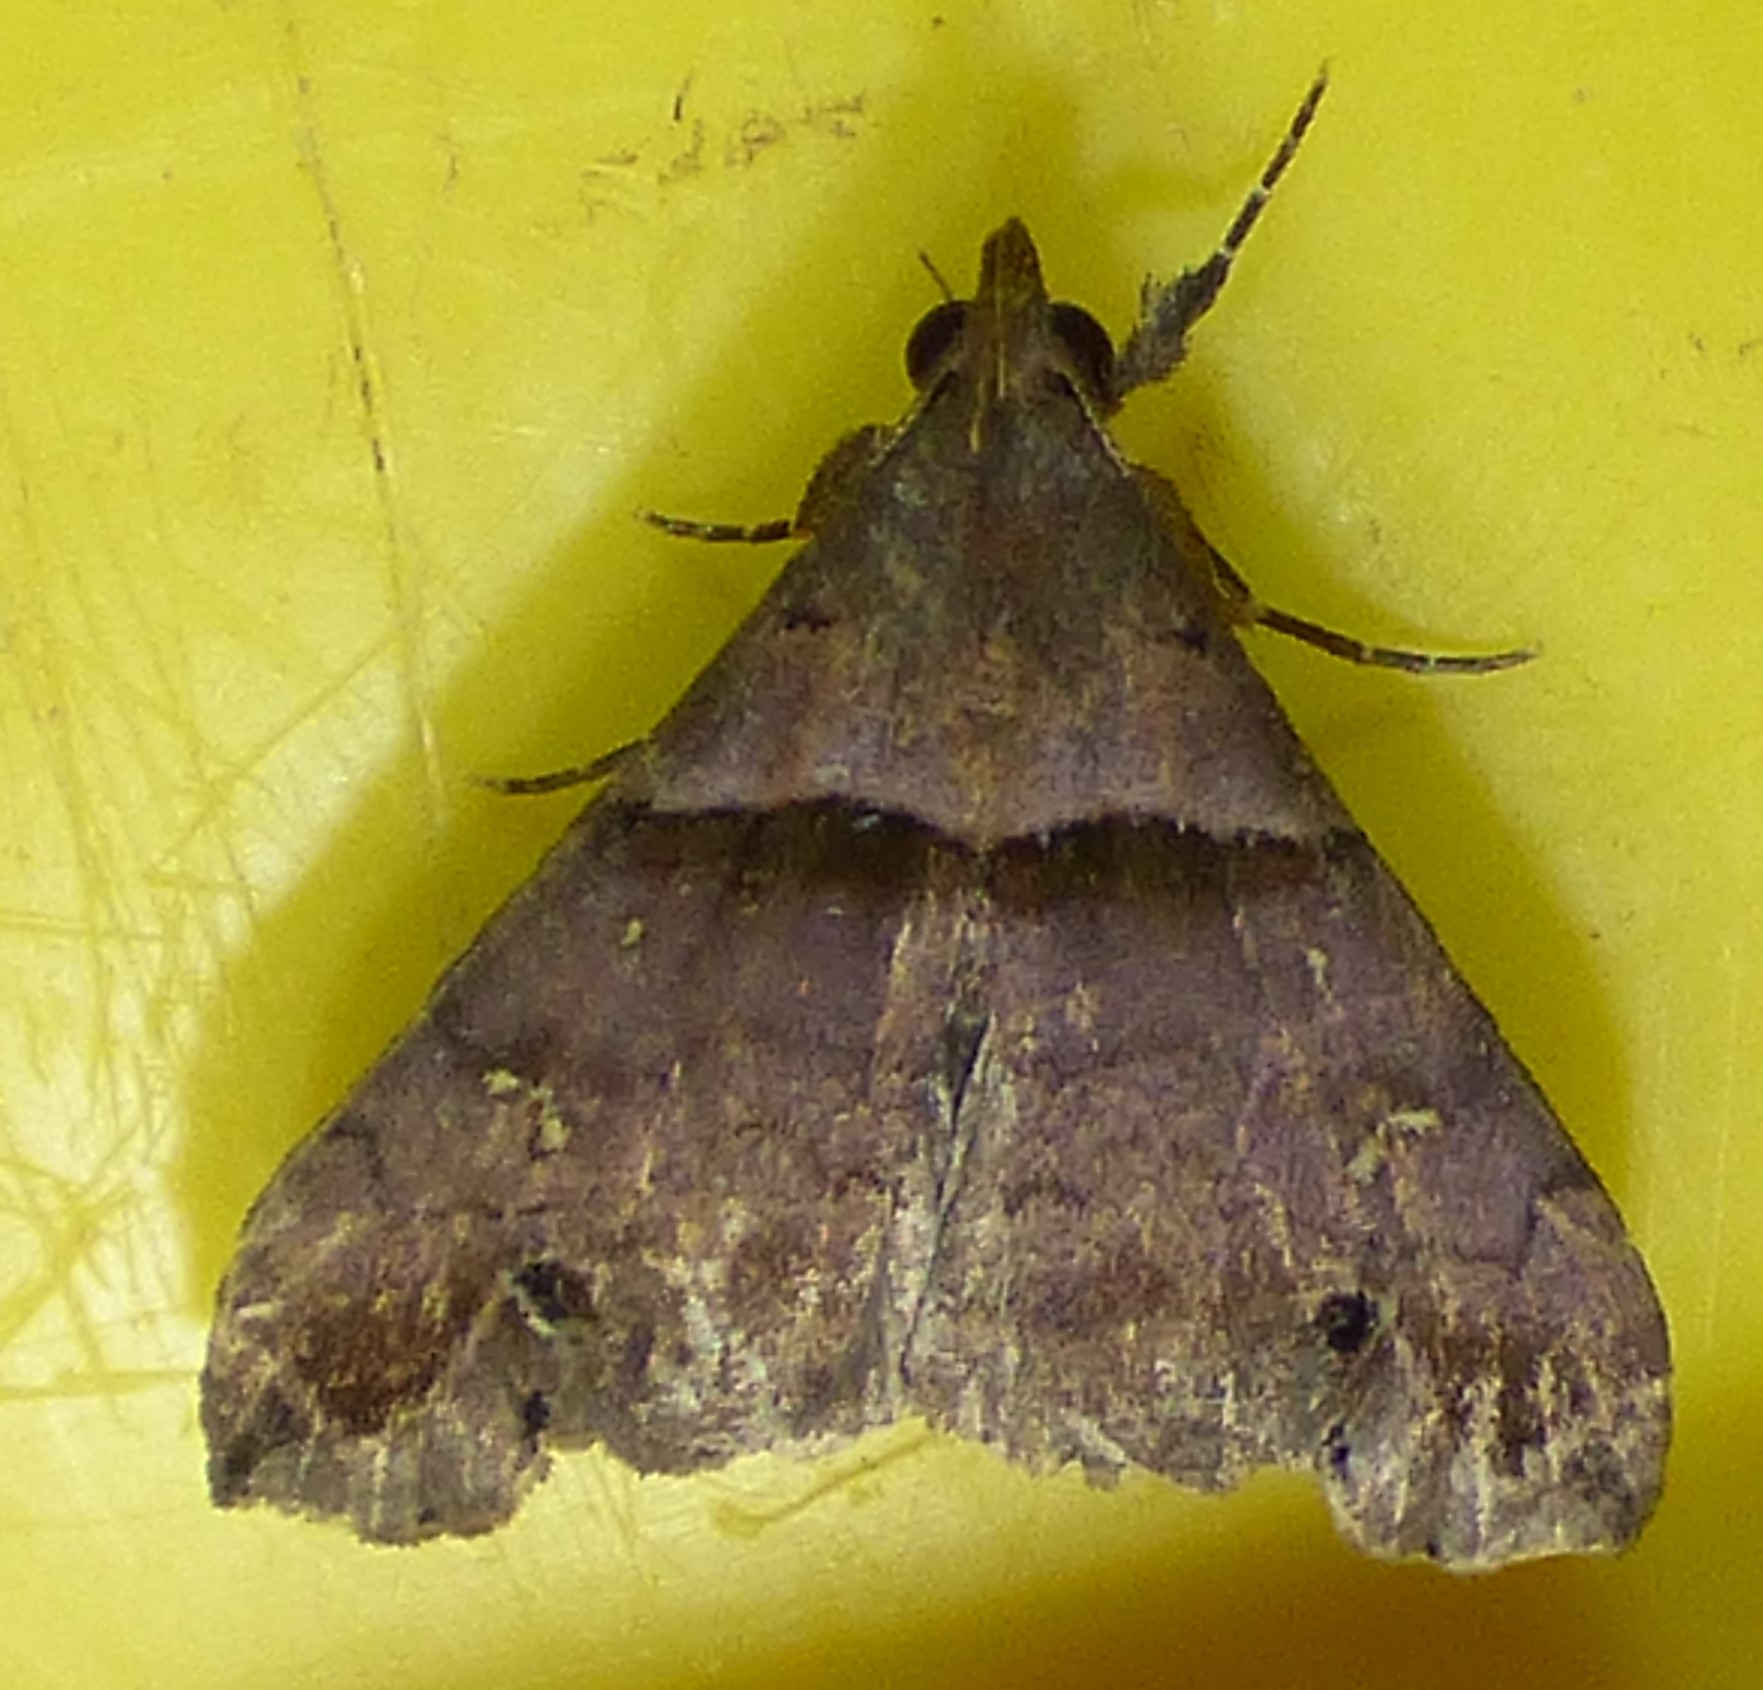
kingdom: Animalia
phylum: Arthropoda
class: Insecta
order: Lepidoptera
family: Erebidae
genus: Lascoria
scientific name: Lascoria ambigualis
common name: Ambiguous moth
